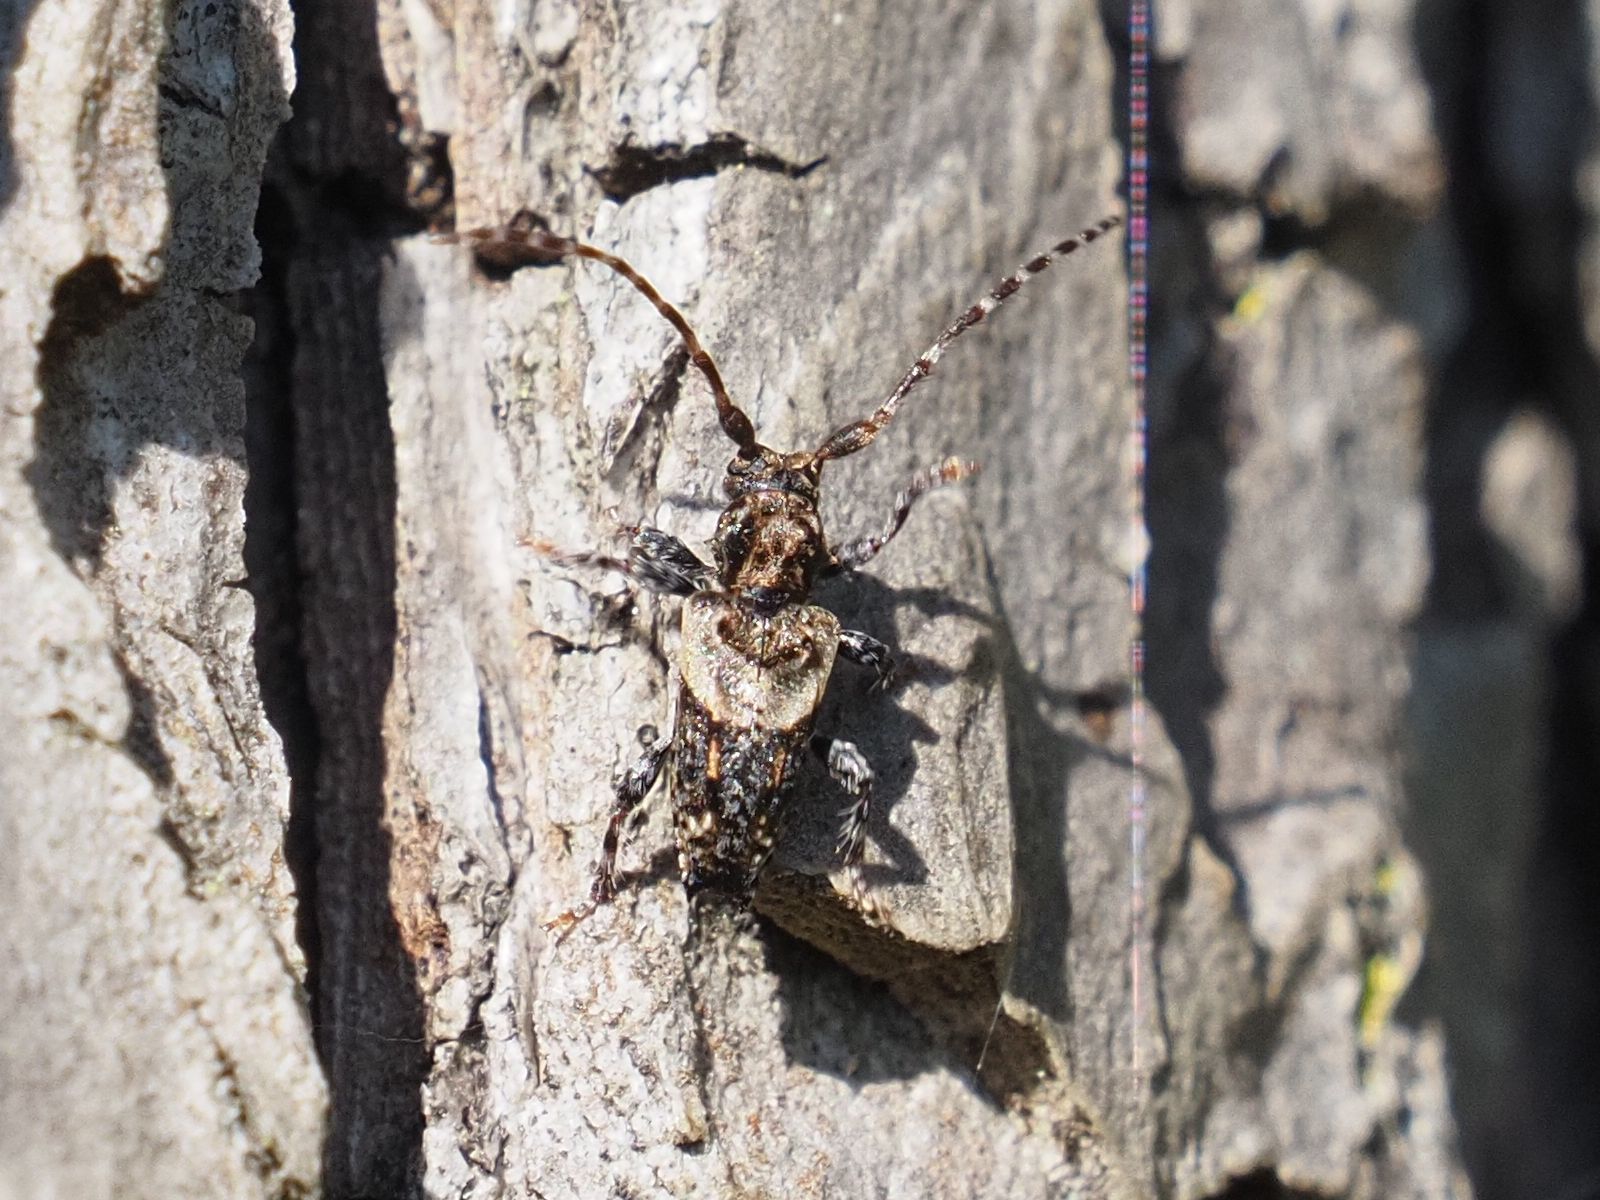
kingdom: Animalia
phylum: Arthropoda
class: Insecta
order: Coleoptera
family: Cerambycidae
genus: Pogonocherus
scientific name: Pogonocherus hispidus
